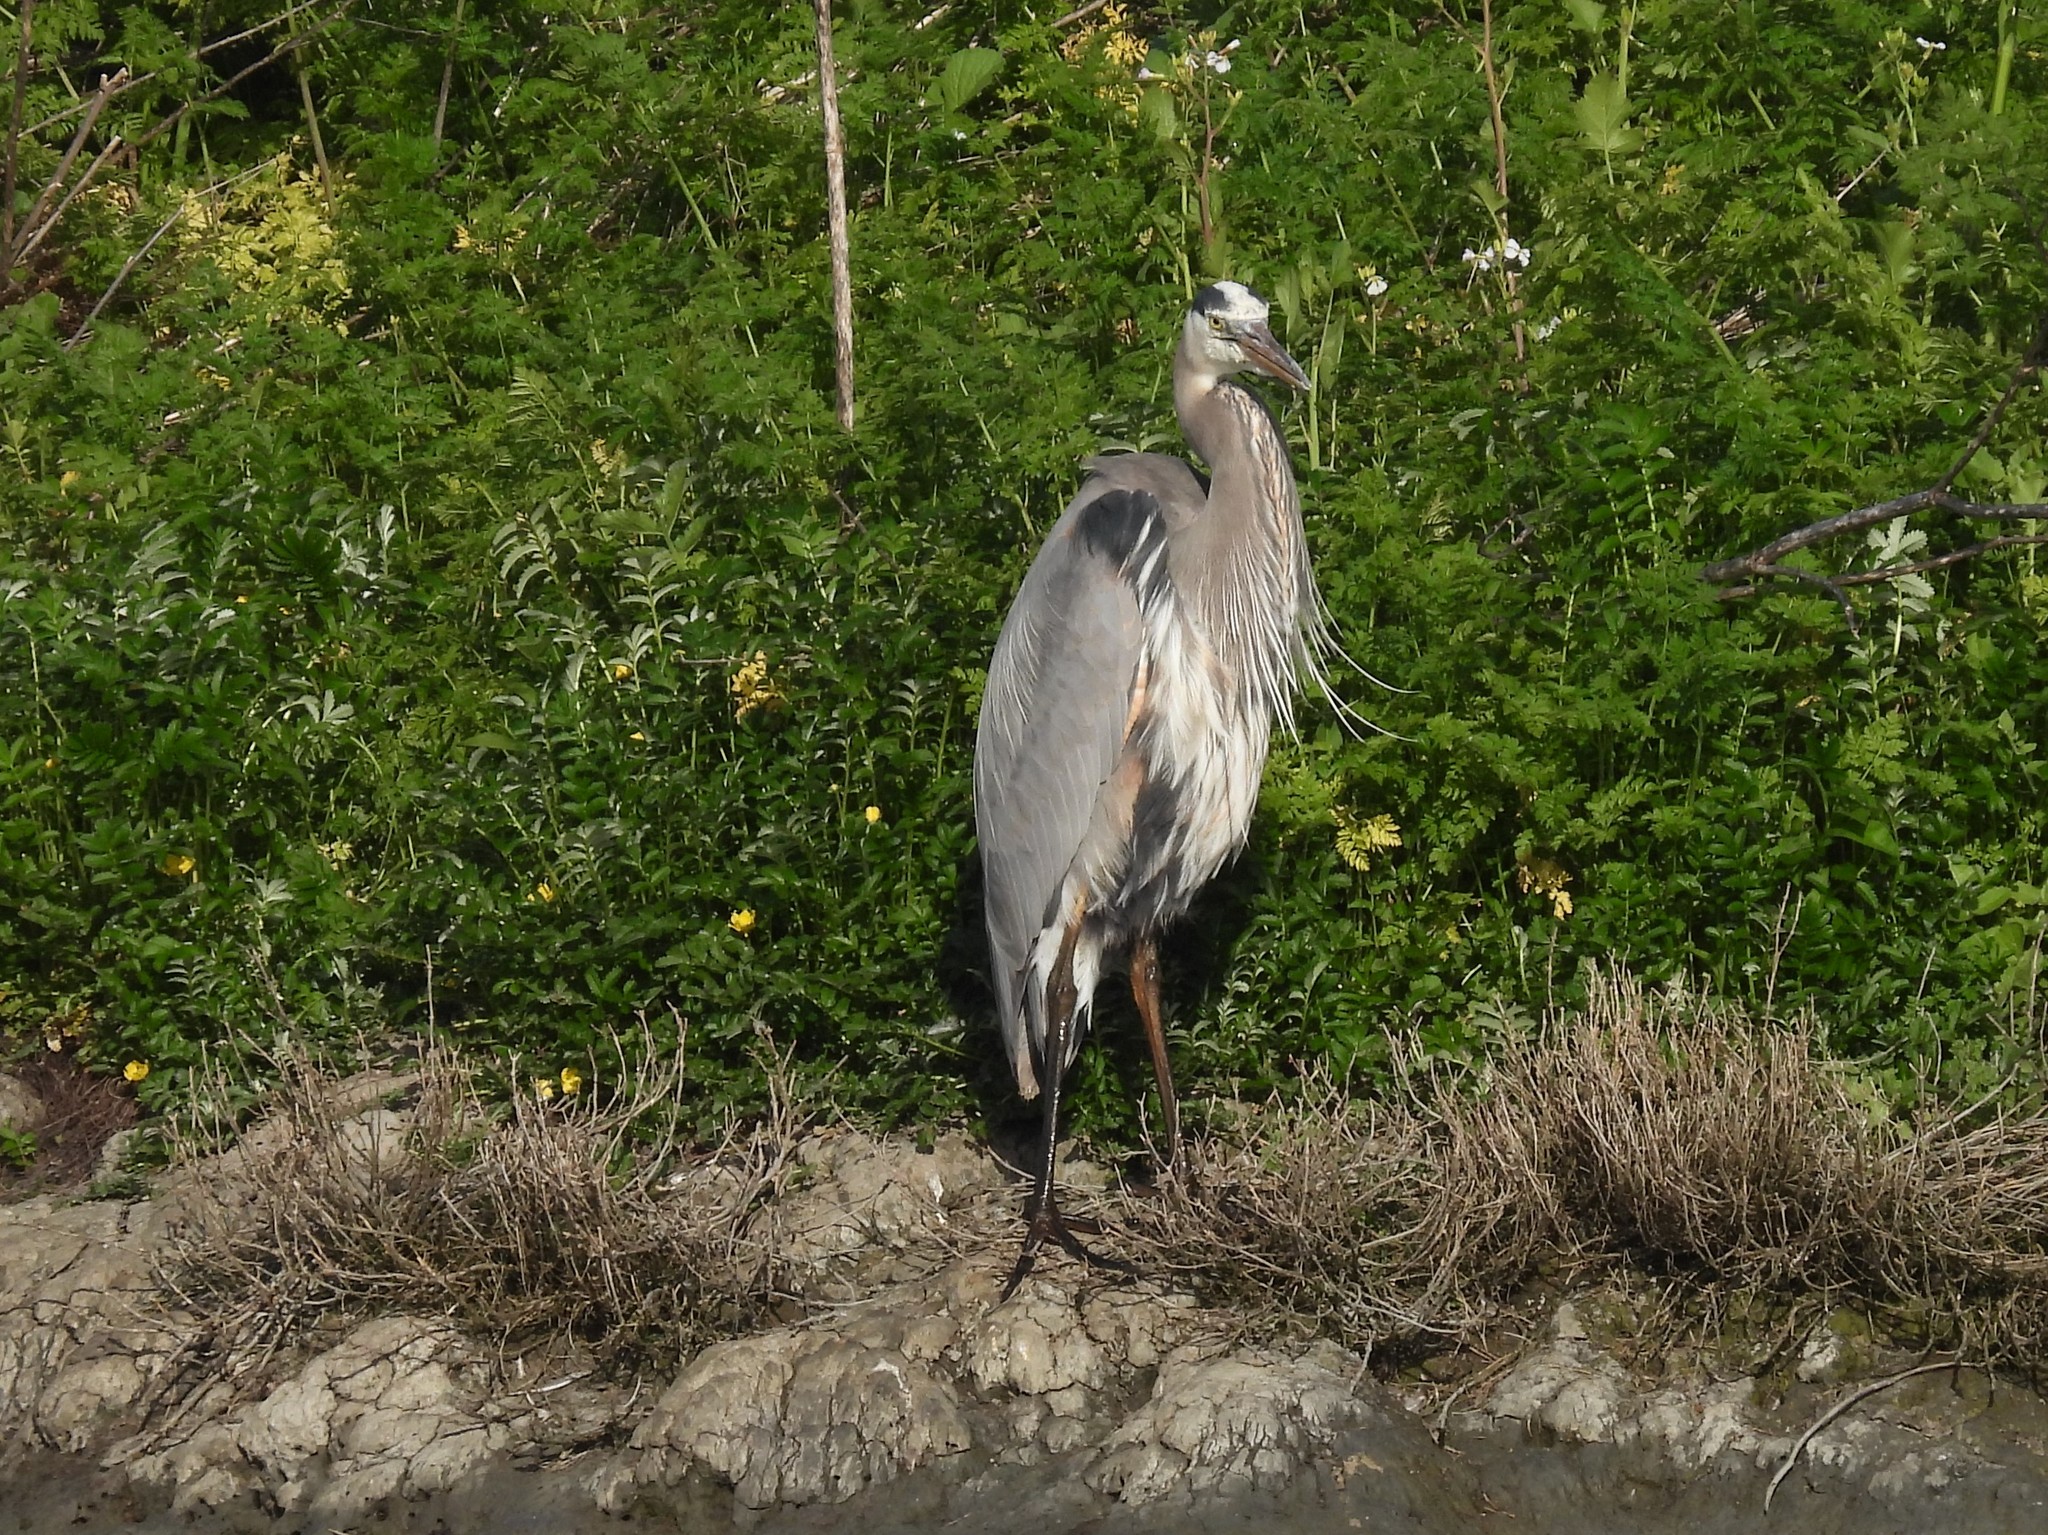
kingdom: Animalia
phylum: Chordata
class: Aves
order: Pelecaniformes
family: Ardeidae
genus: Ardea
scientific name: Ardea herodias
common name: Great blue heron
